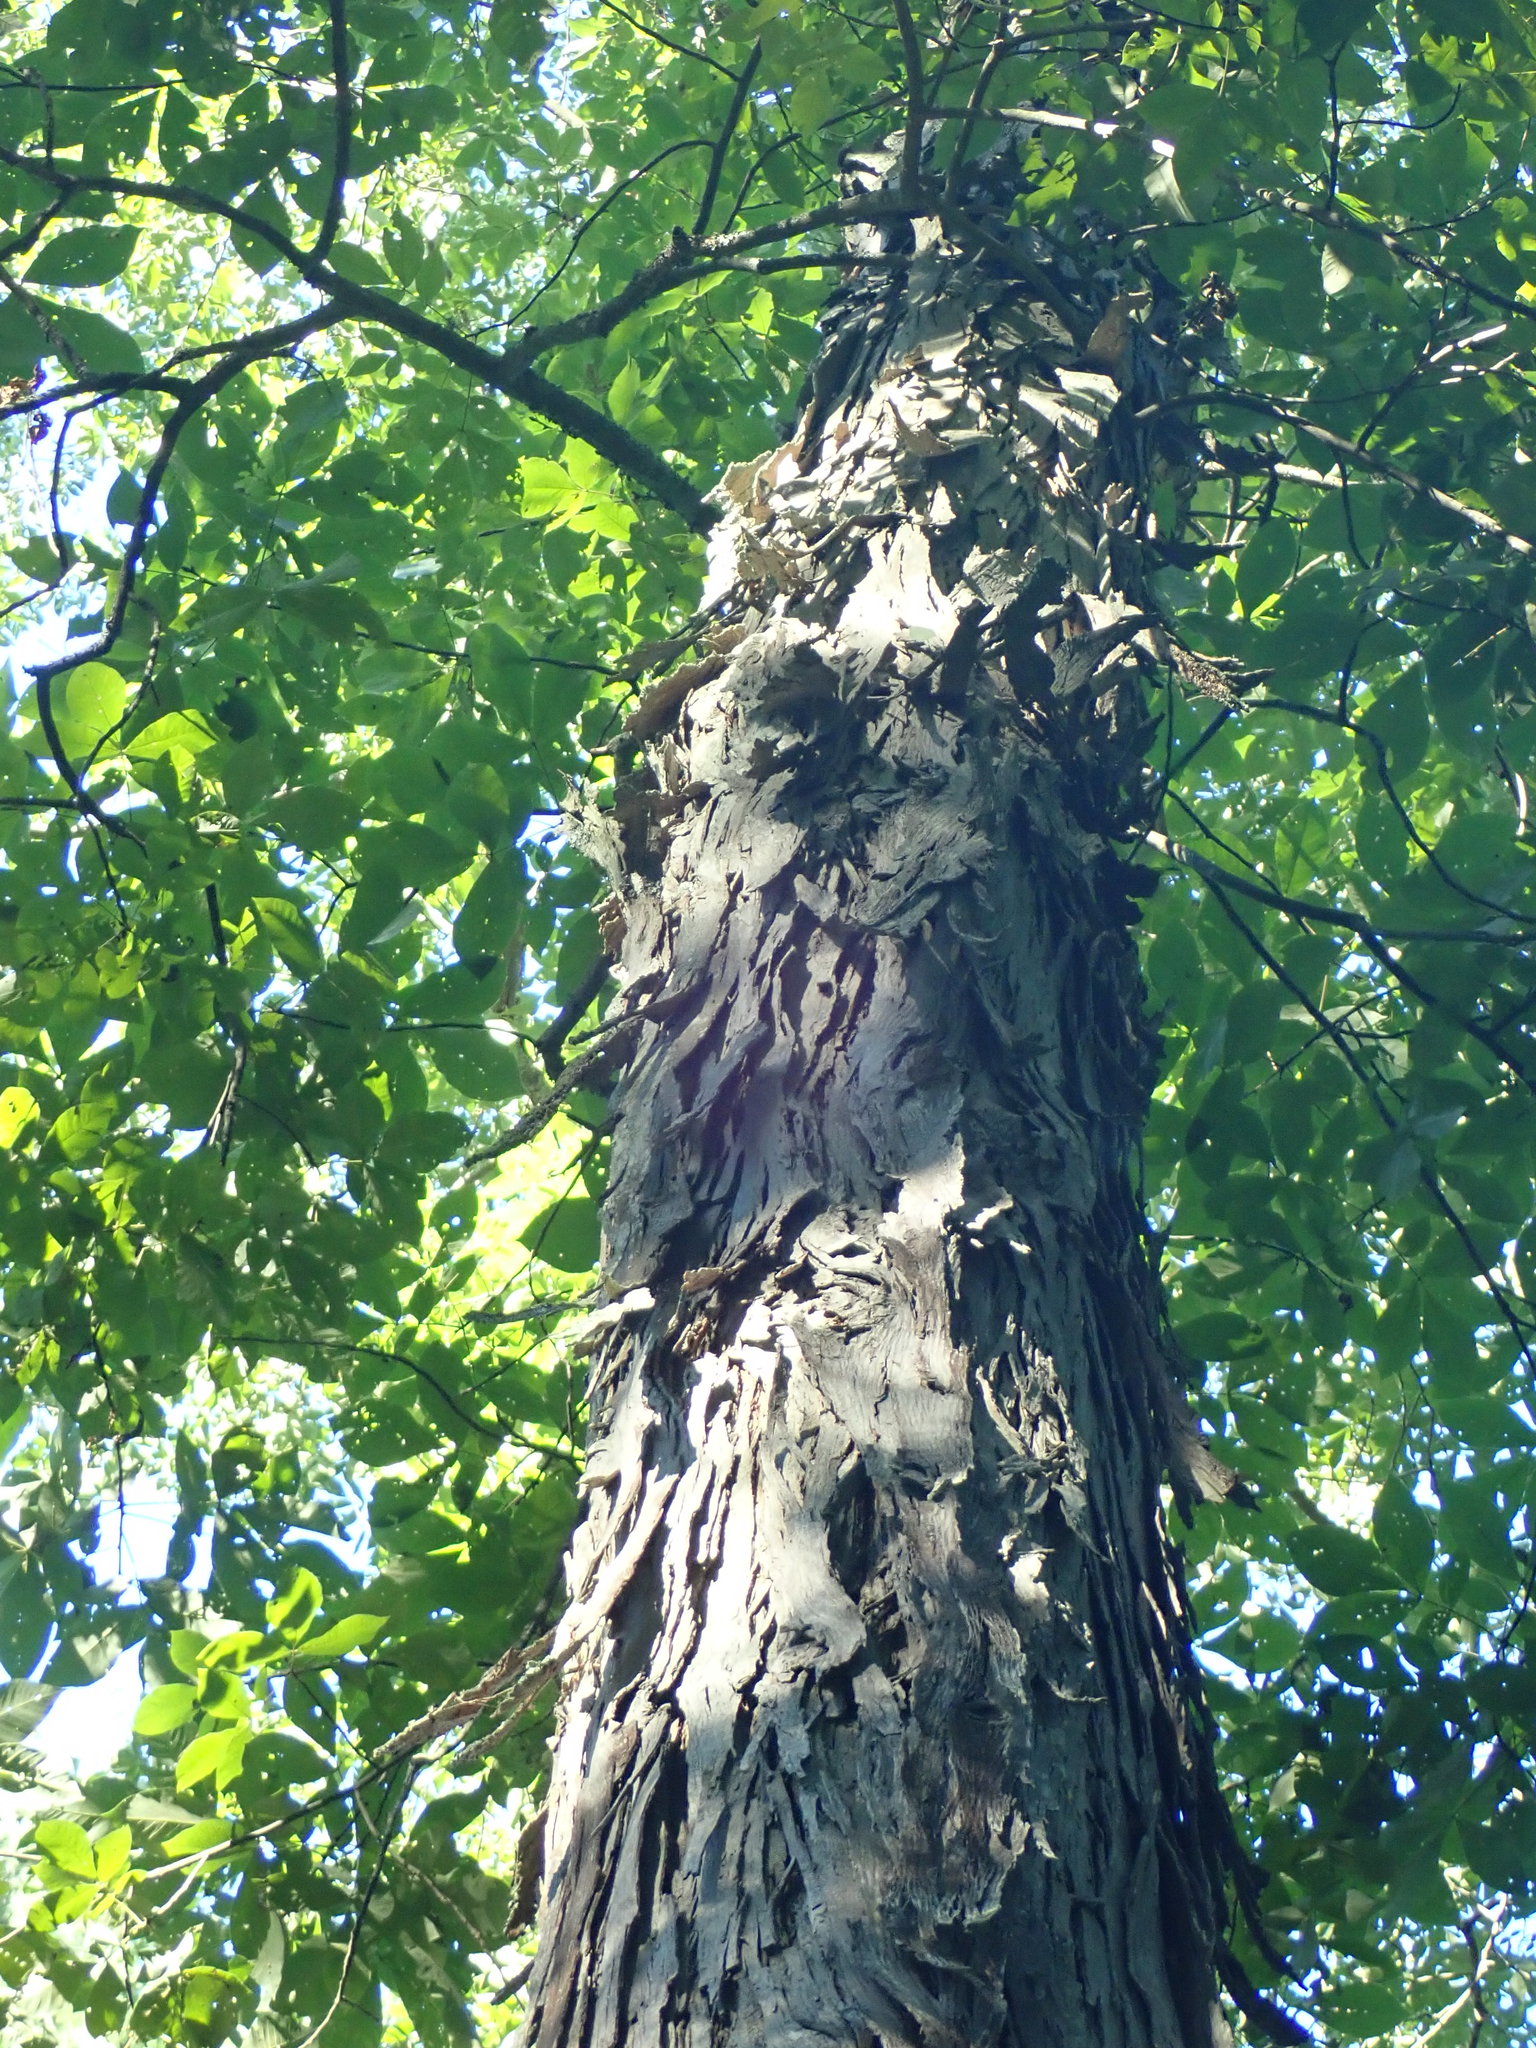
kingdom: Plantae
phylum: Tracheophyta
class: Magnoliopsida
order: Fagales
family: Juglandaceae
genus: Carya
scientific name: Carya ovata
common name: Shagbark hickory
